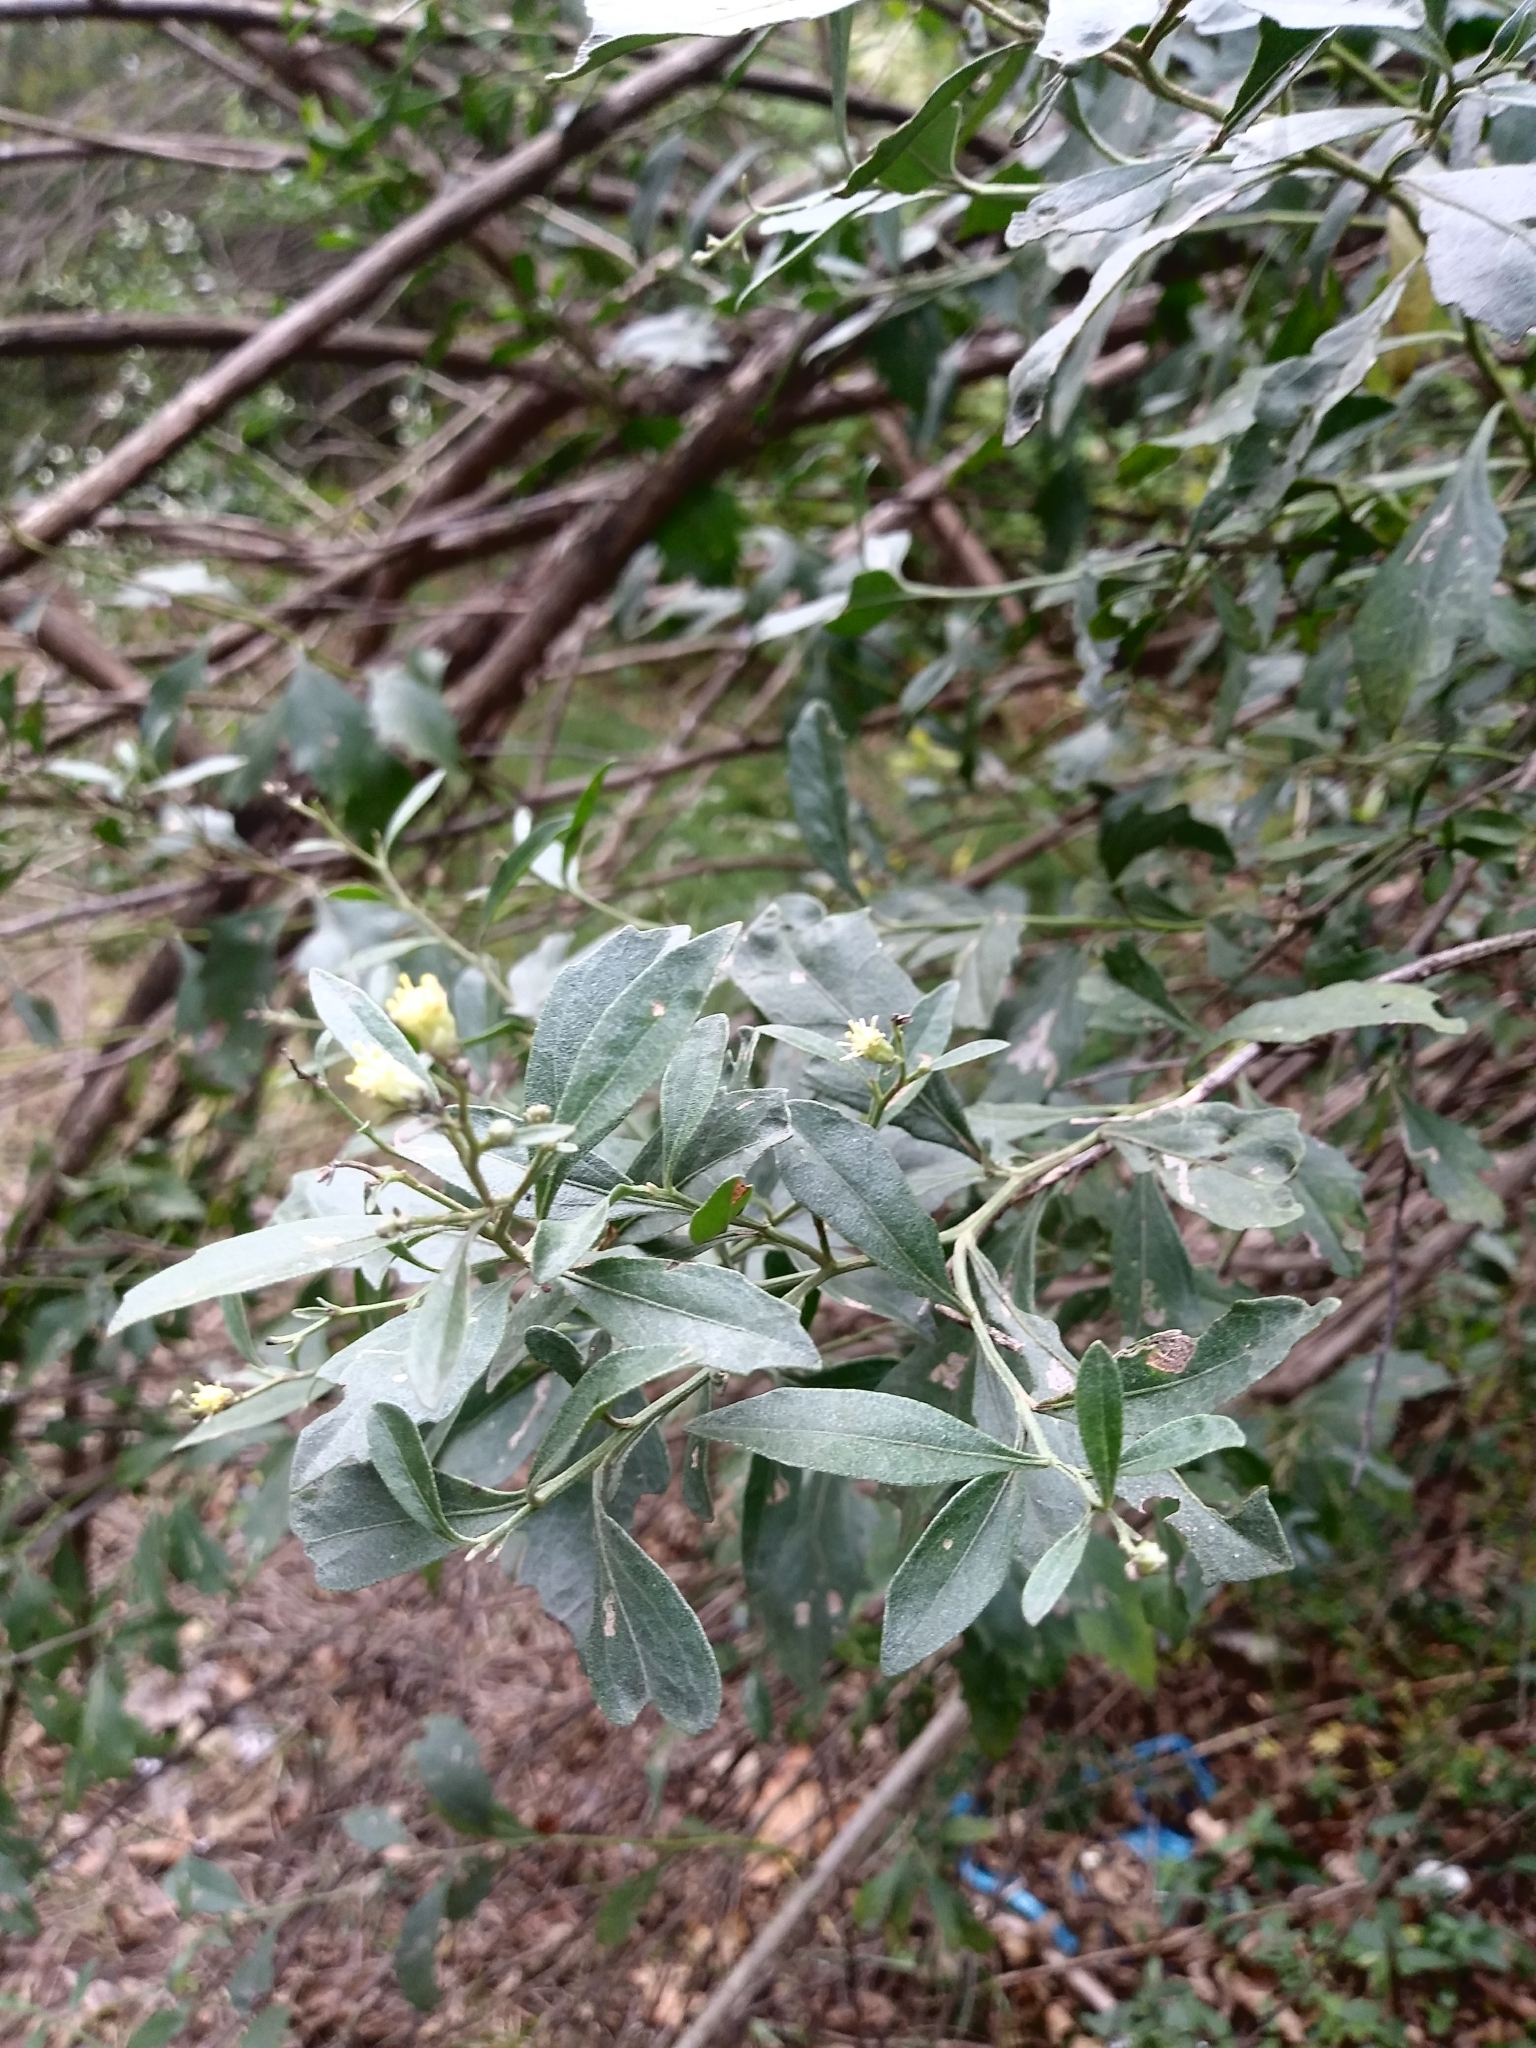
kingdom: Plantae
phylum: Tracheophyta
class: Magnoliopsida
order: Asterales
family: Asteraceae
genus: Baccharis
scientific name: Baccharis halimifolia
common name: Eastern baccharis
